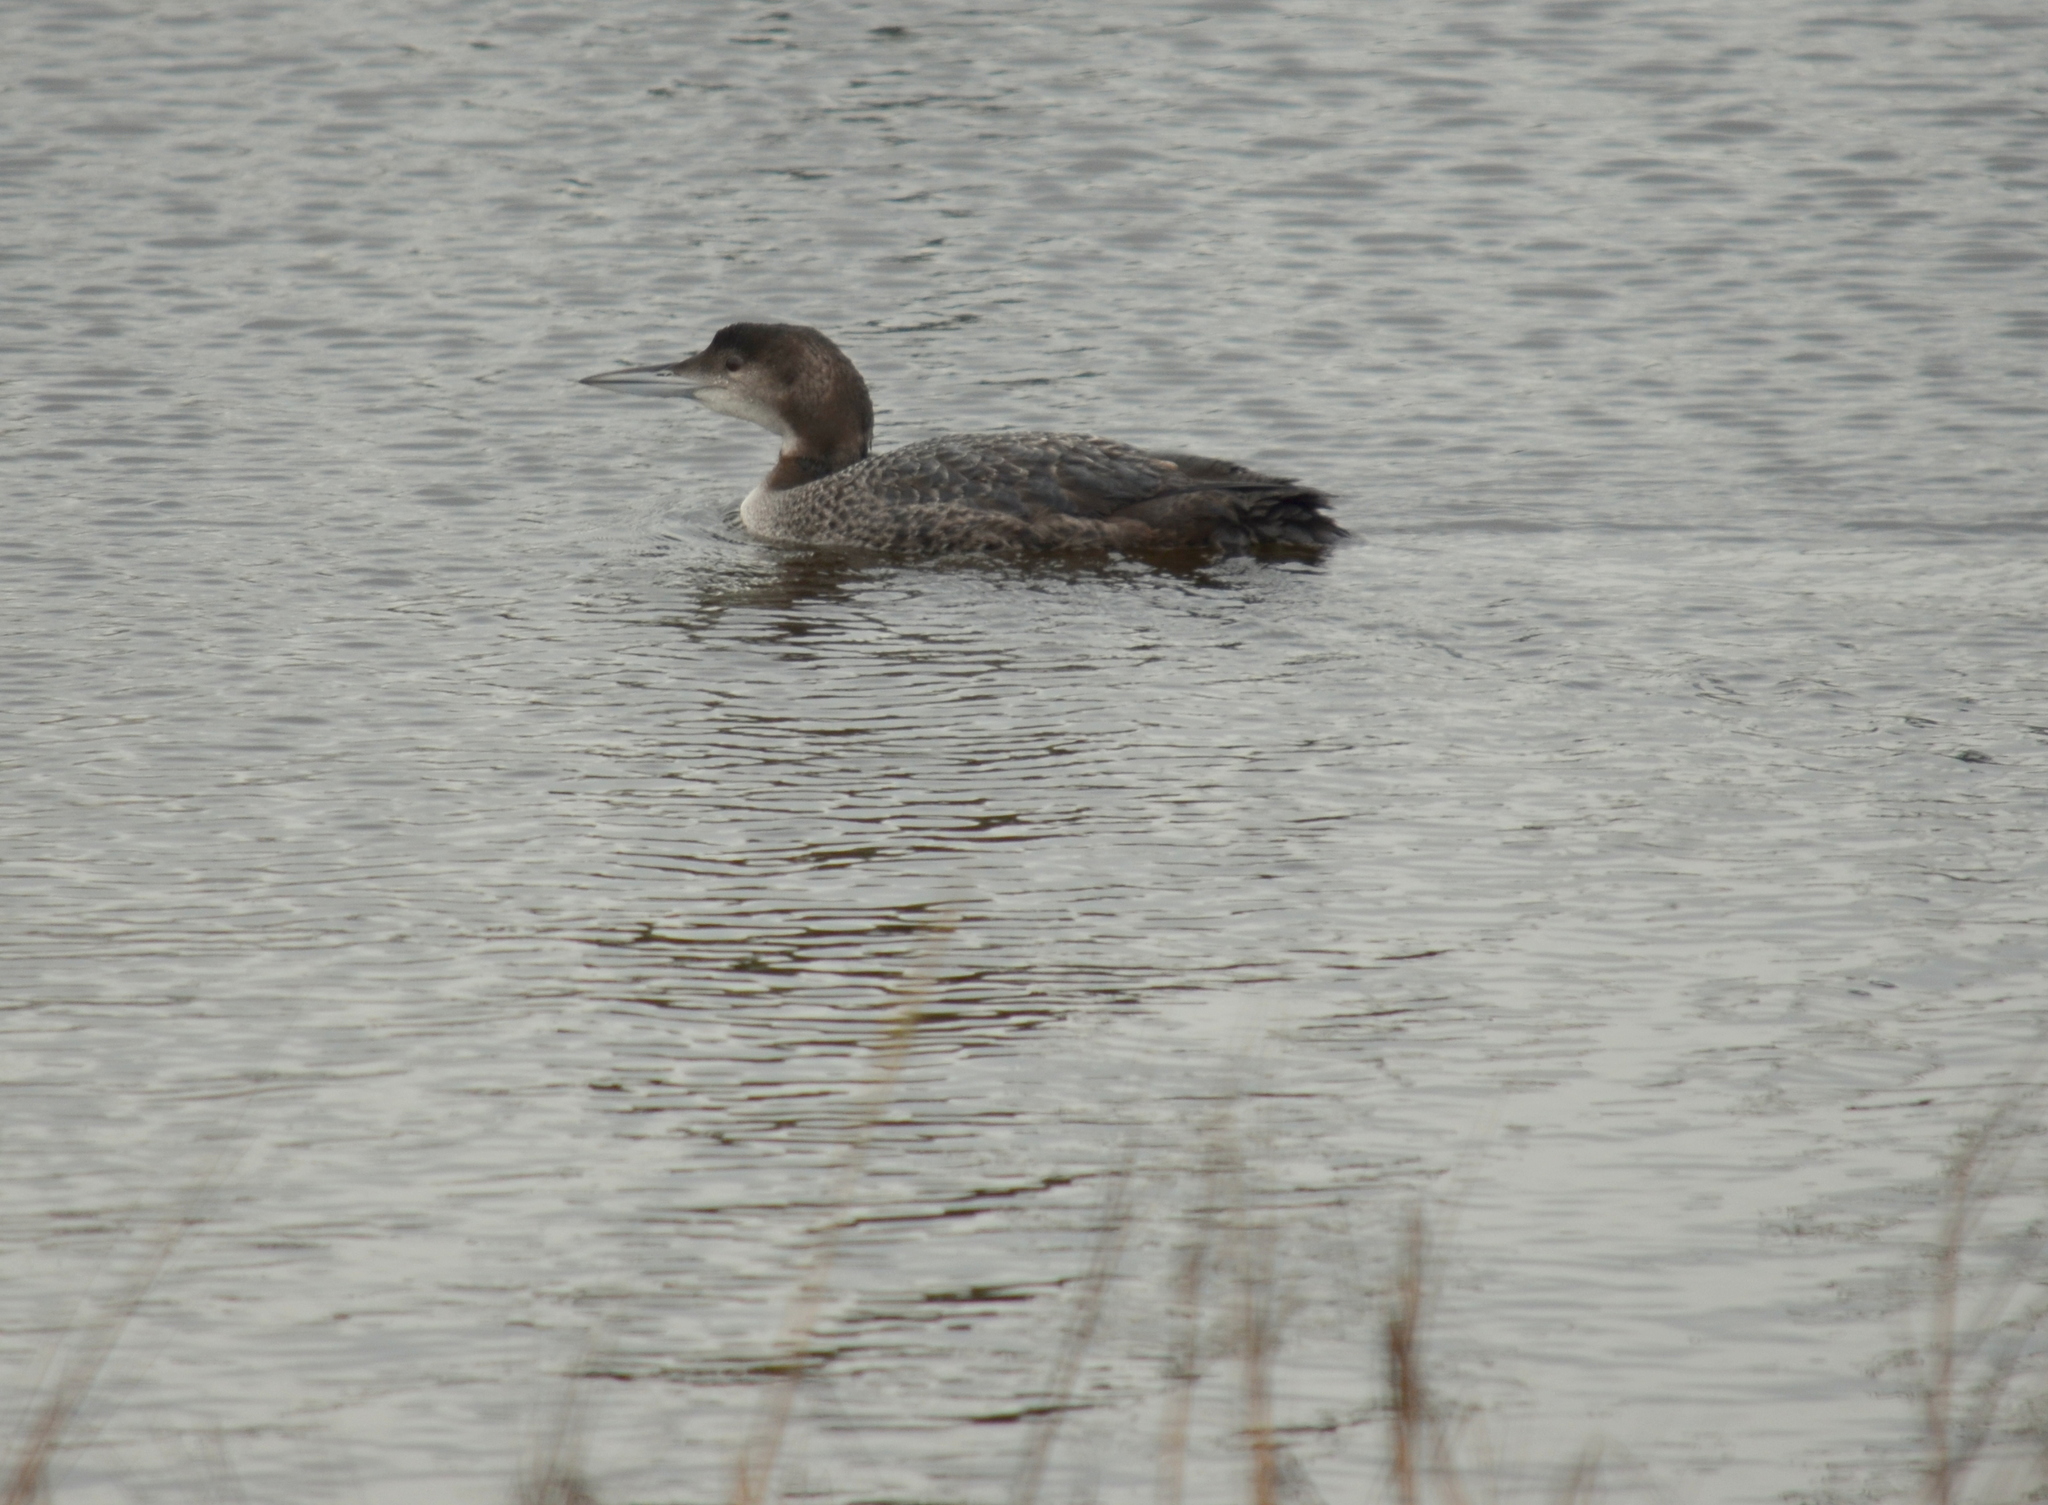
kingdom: Animalia
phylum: Chordata
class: Aves
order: Gaviiformes
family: Gaviidae
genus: Gavia
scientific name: Gavia immer
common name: Common loon
